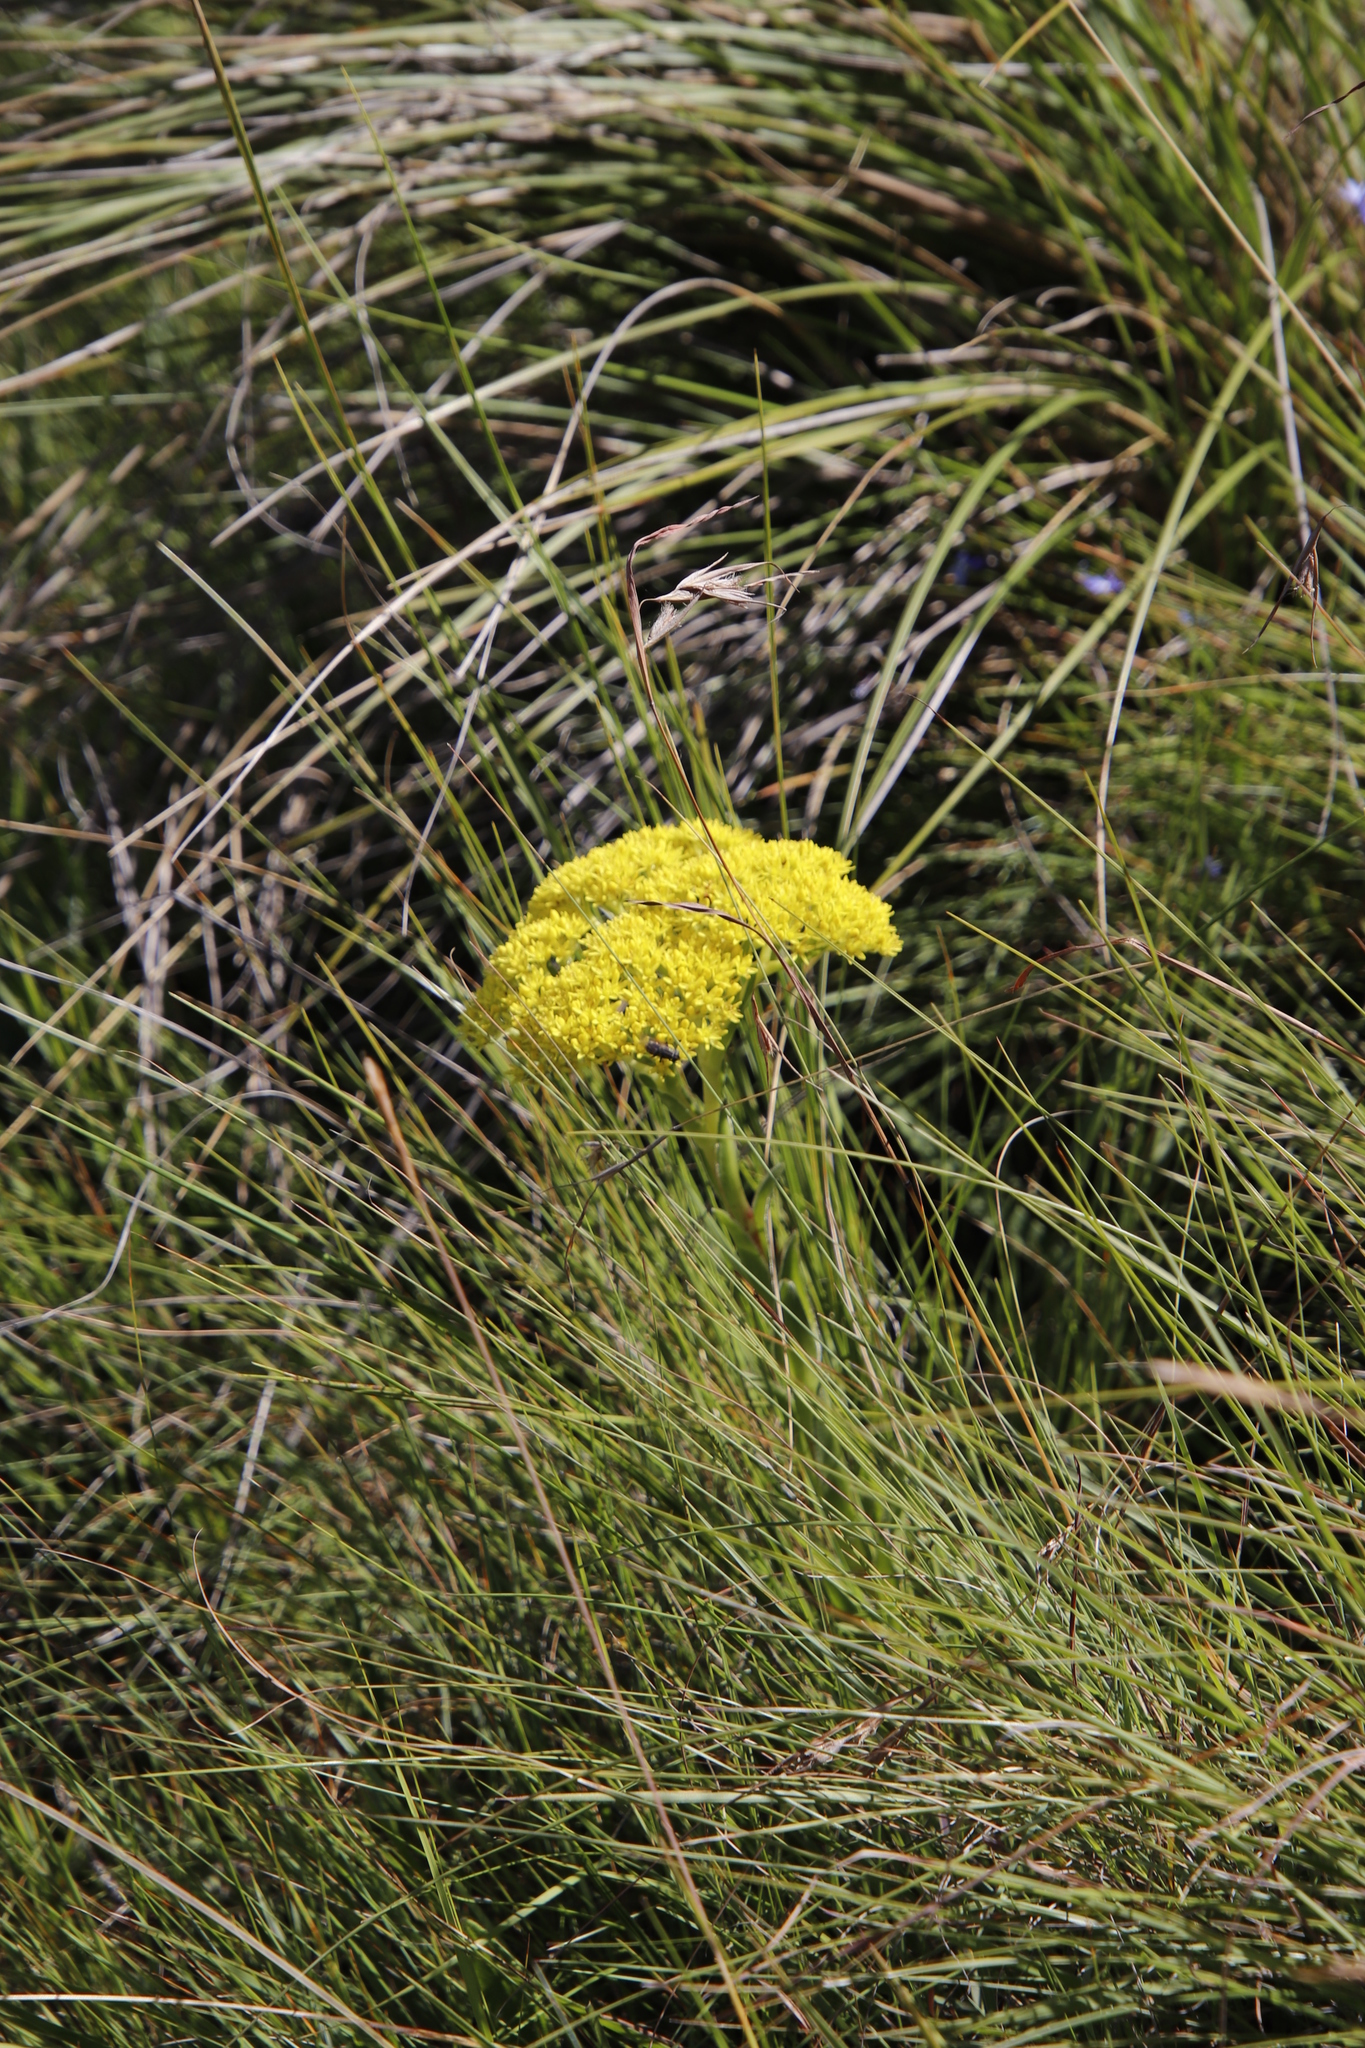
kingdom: Plantae
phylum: Tracheophyta
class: Magnoliopsida
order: Saxifragales
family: Crassulaceae
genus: Crassula
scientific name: Crassula vaginata
